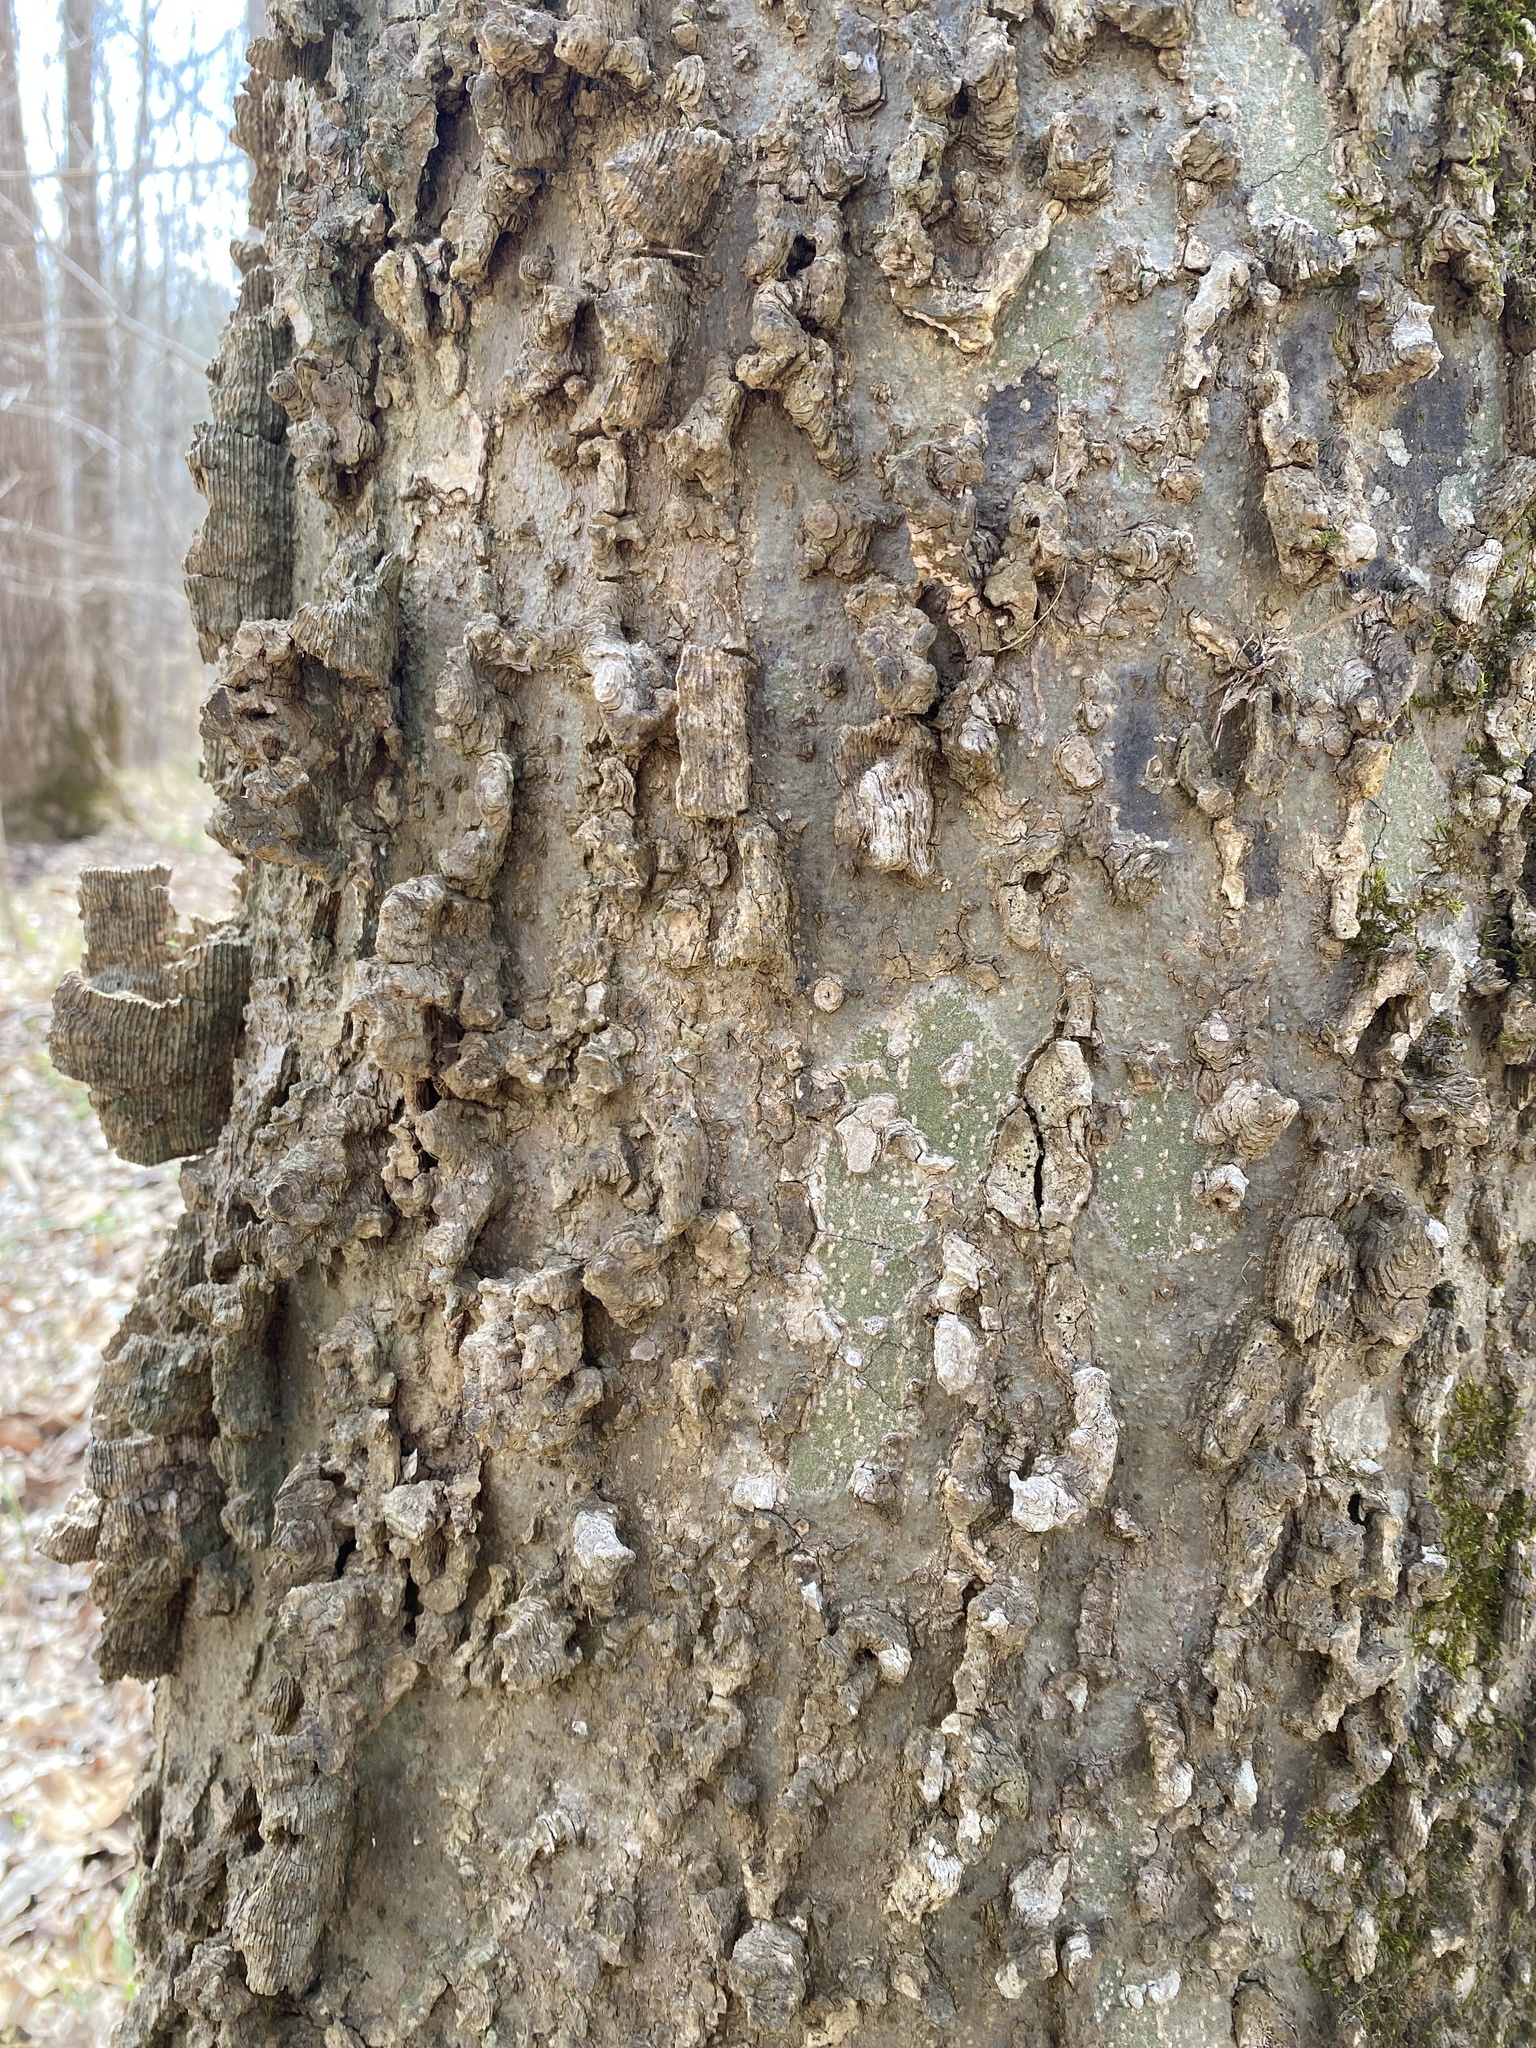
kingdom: Plantae
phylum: Tracheophyta
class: Magnoliopsida
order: Rosales
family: Cannabaceae
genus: Celtis
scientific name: Celtis laevigata
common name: Sugarberry
